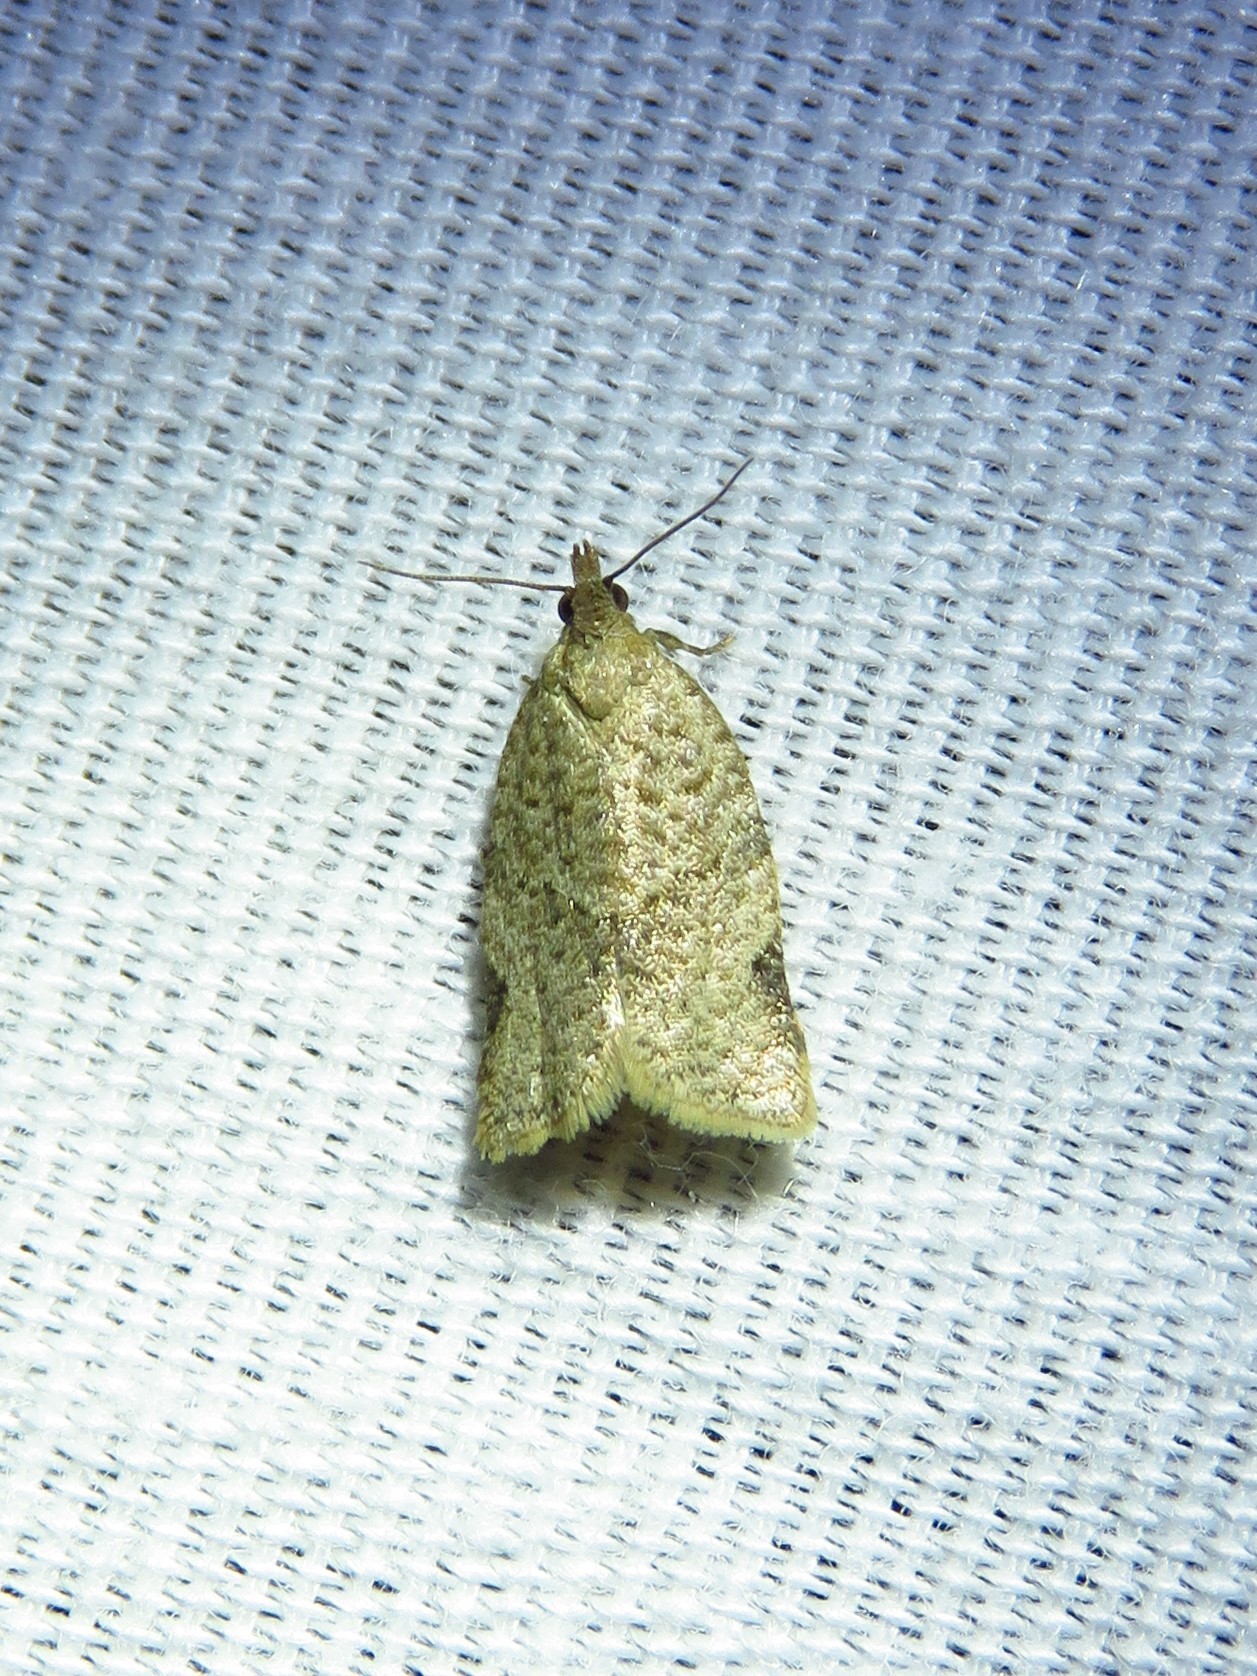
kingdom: Animalia
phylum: Arthropoda
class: Insecta
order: Lepidoptera
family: Tortricidae
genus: Clepsis
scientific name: Clepsis virescana
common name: Greenish apple moth
